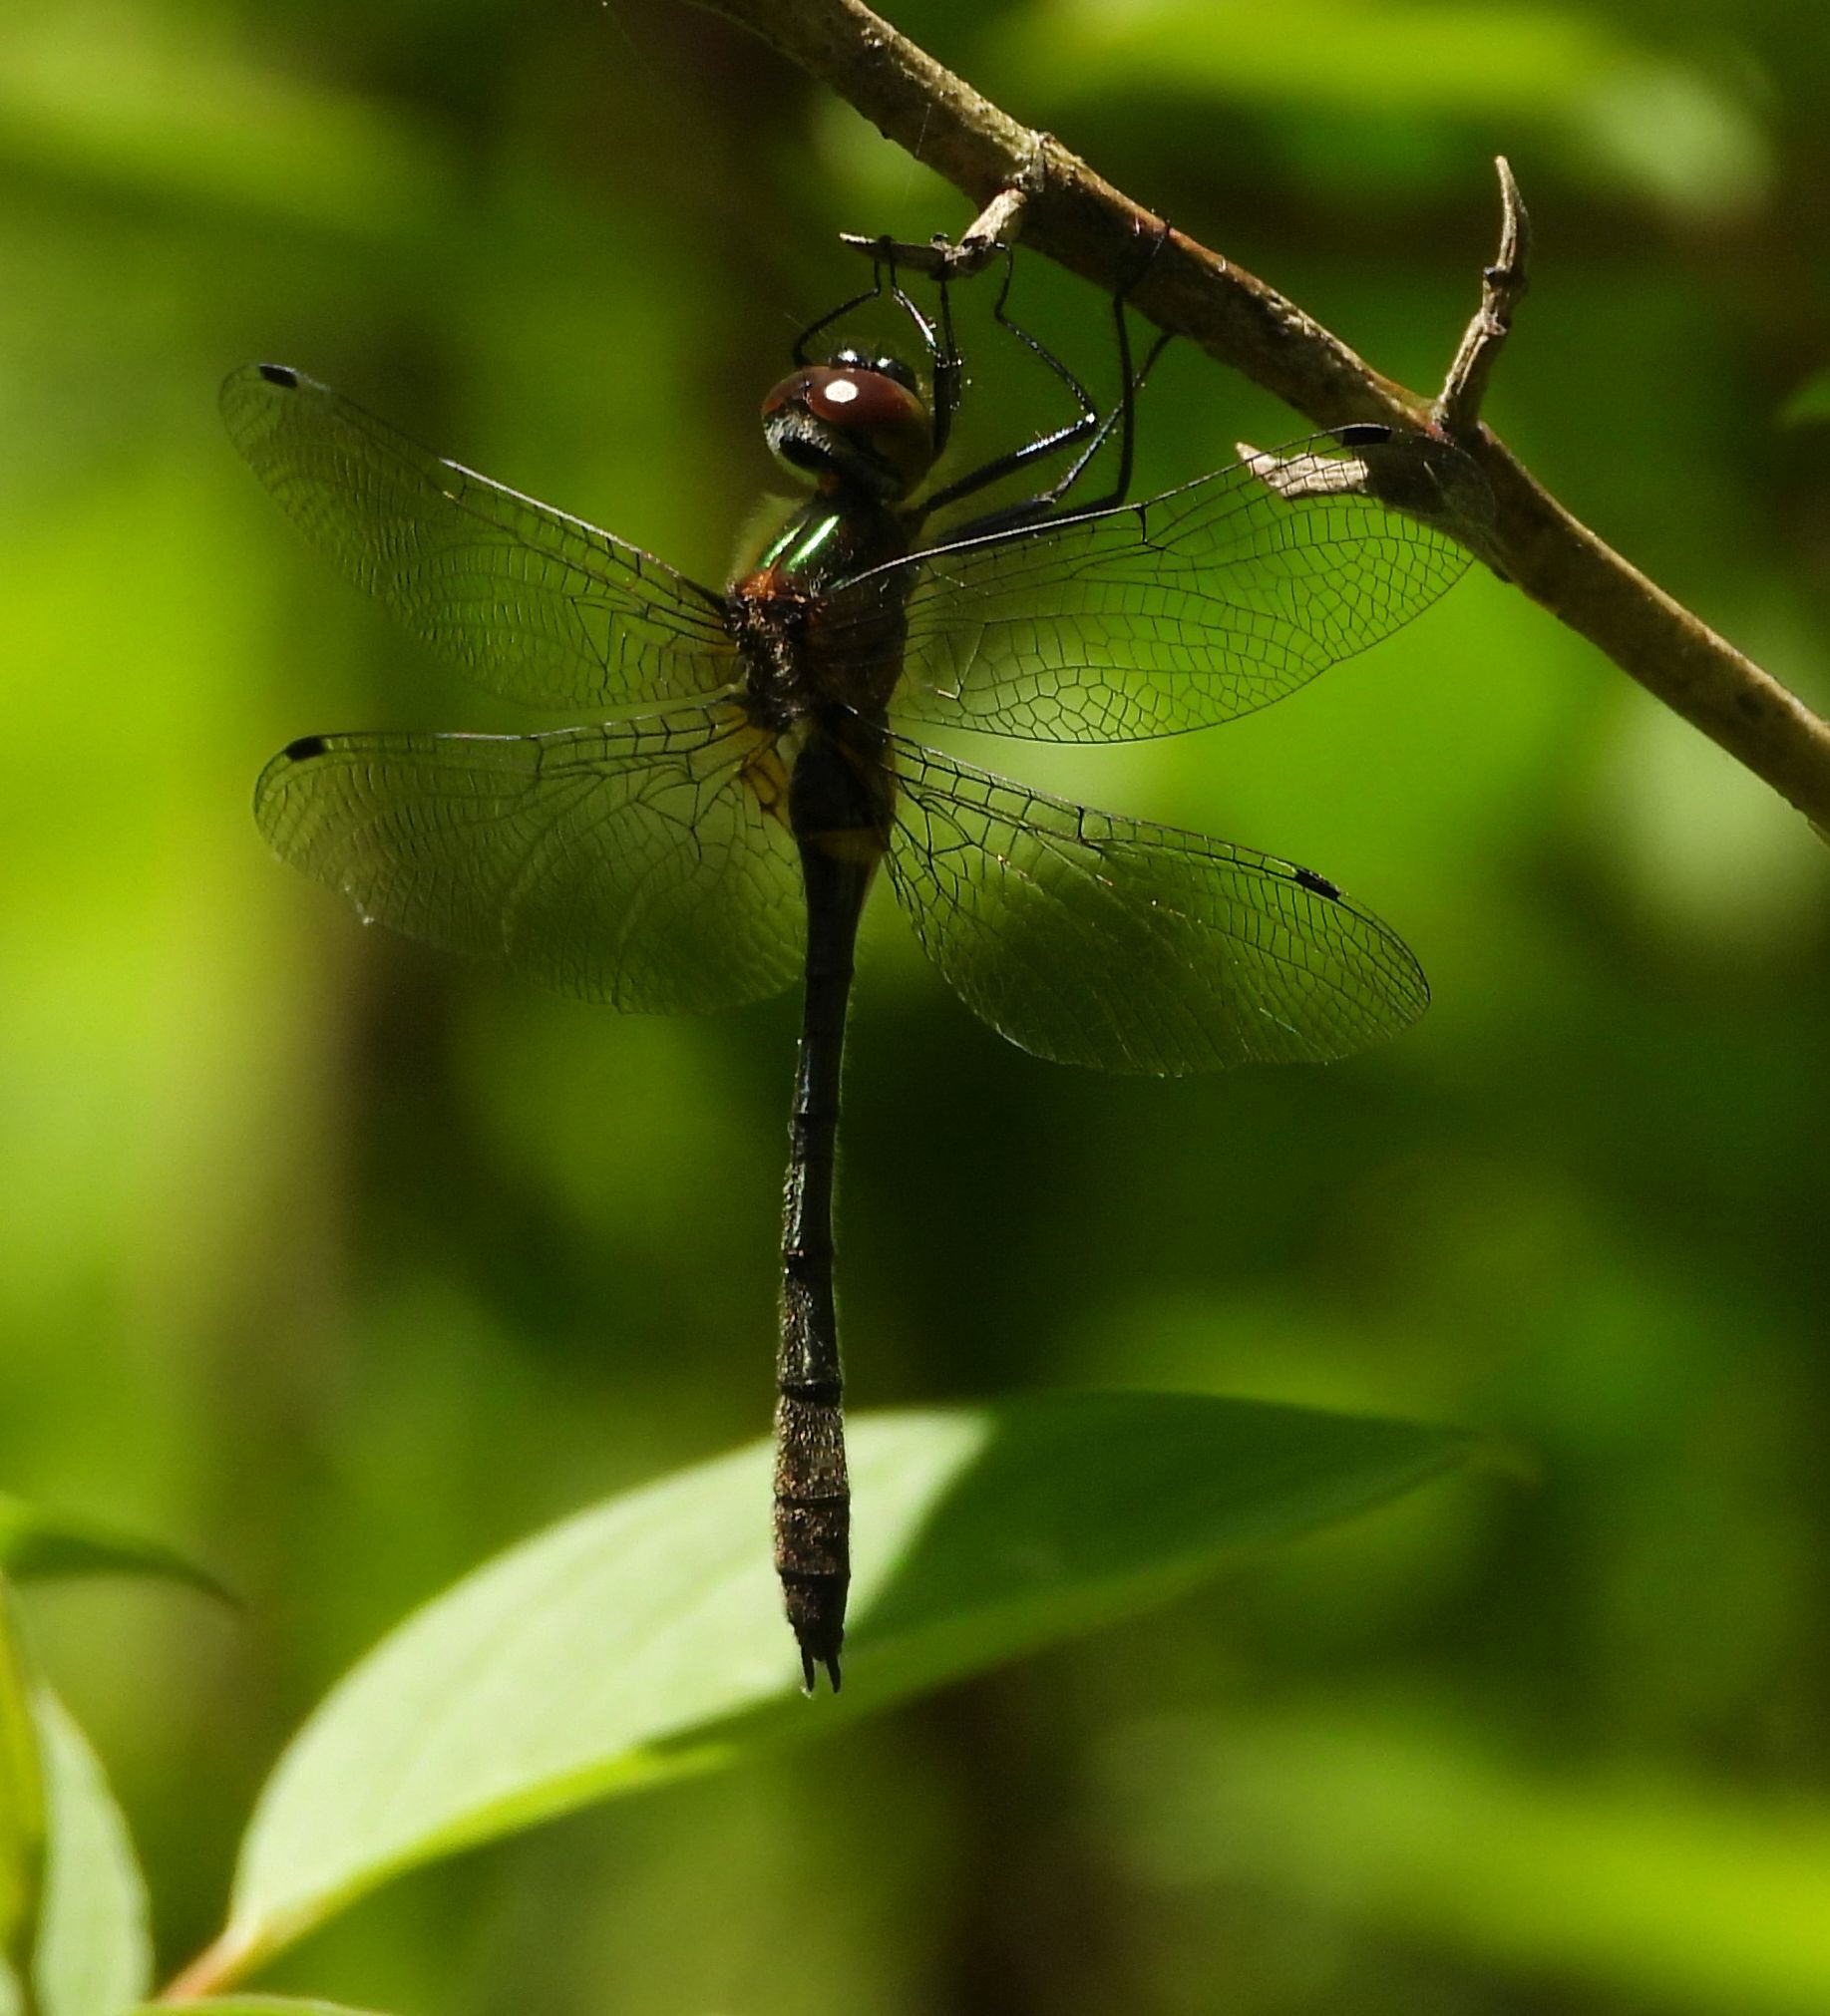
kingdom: Animalia
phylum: Arthropoda
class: Insecta
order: Odonata
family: Corduliidae
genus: Dorocordulia
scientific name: Dorocordulia libera
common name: Racket-tailed emerald
